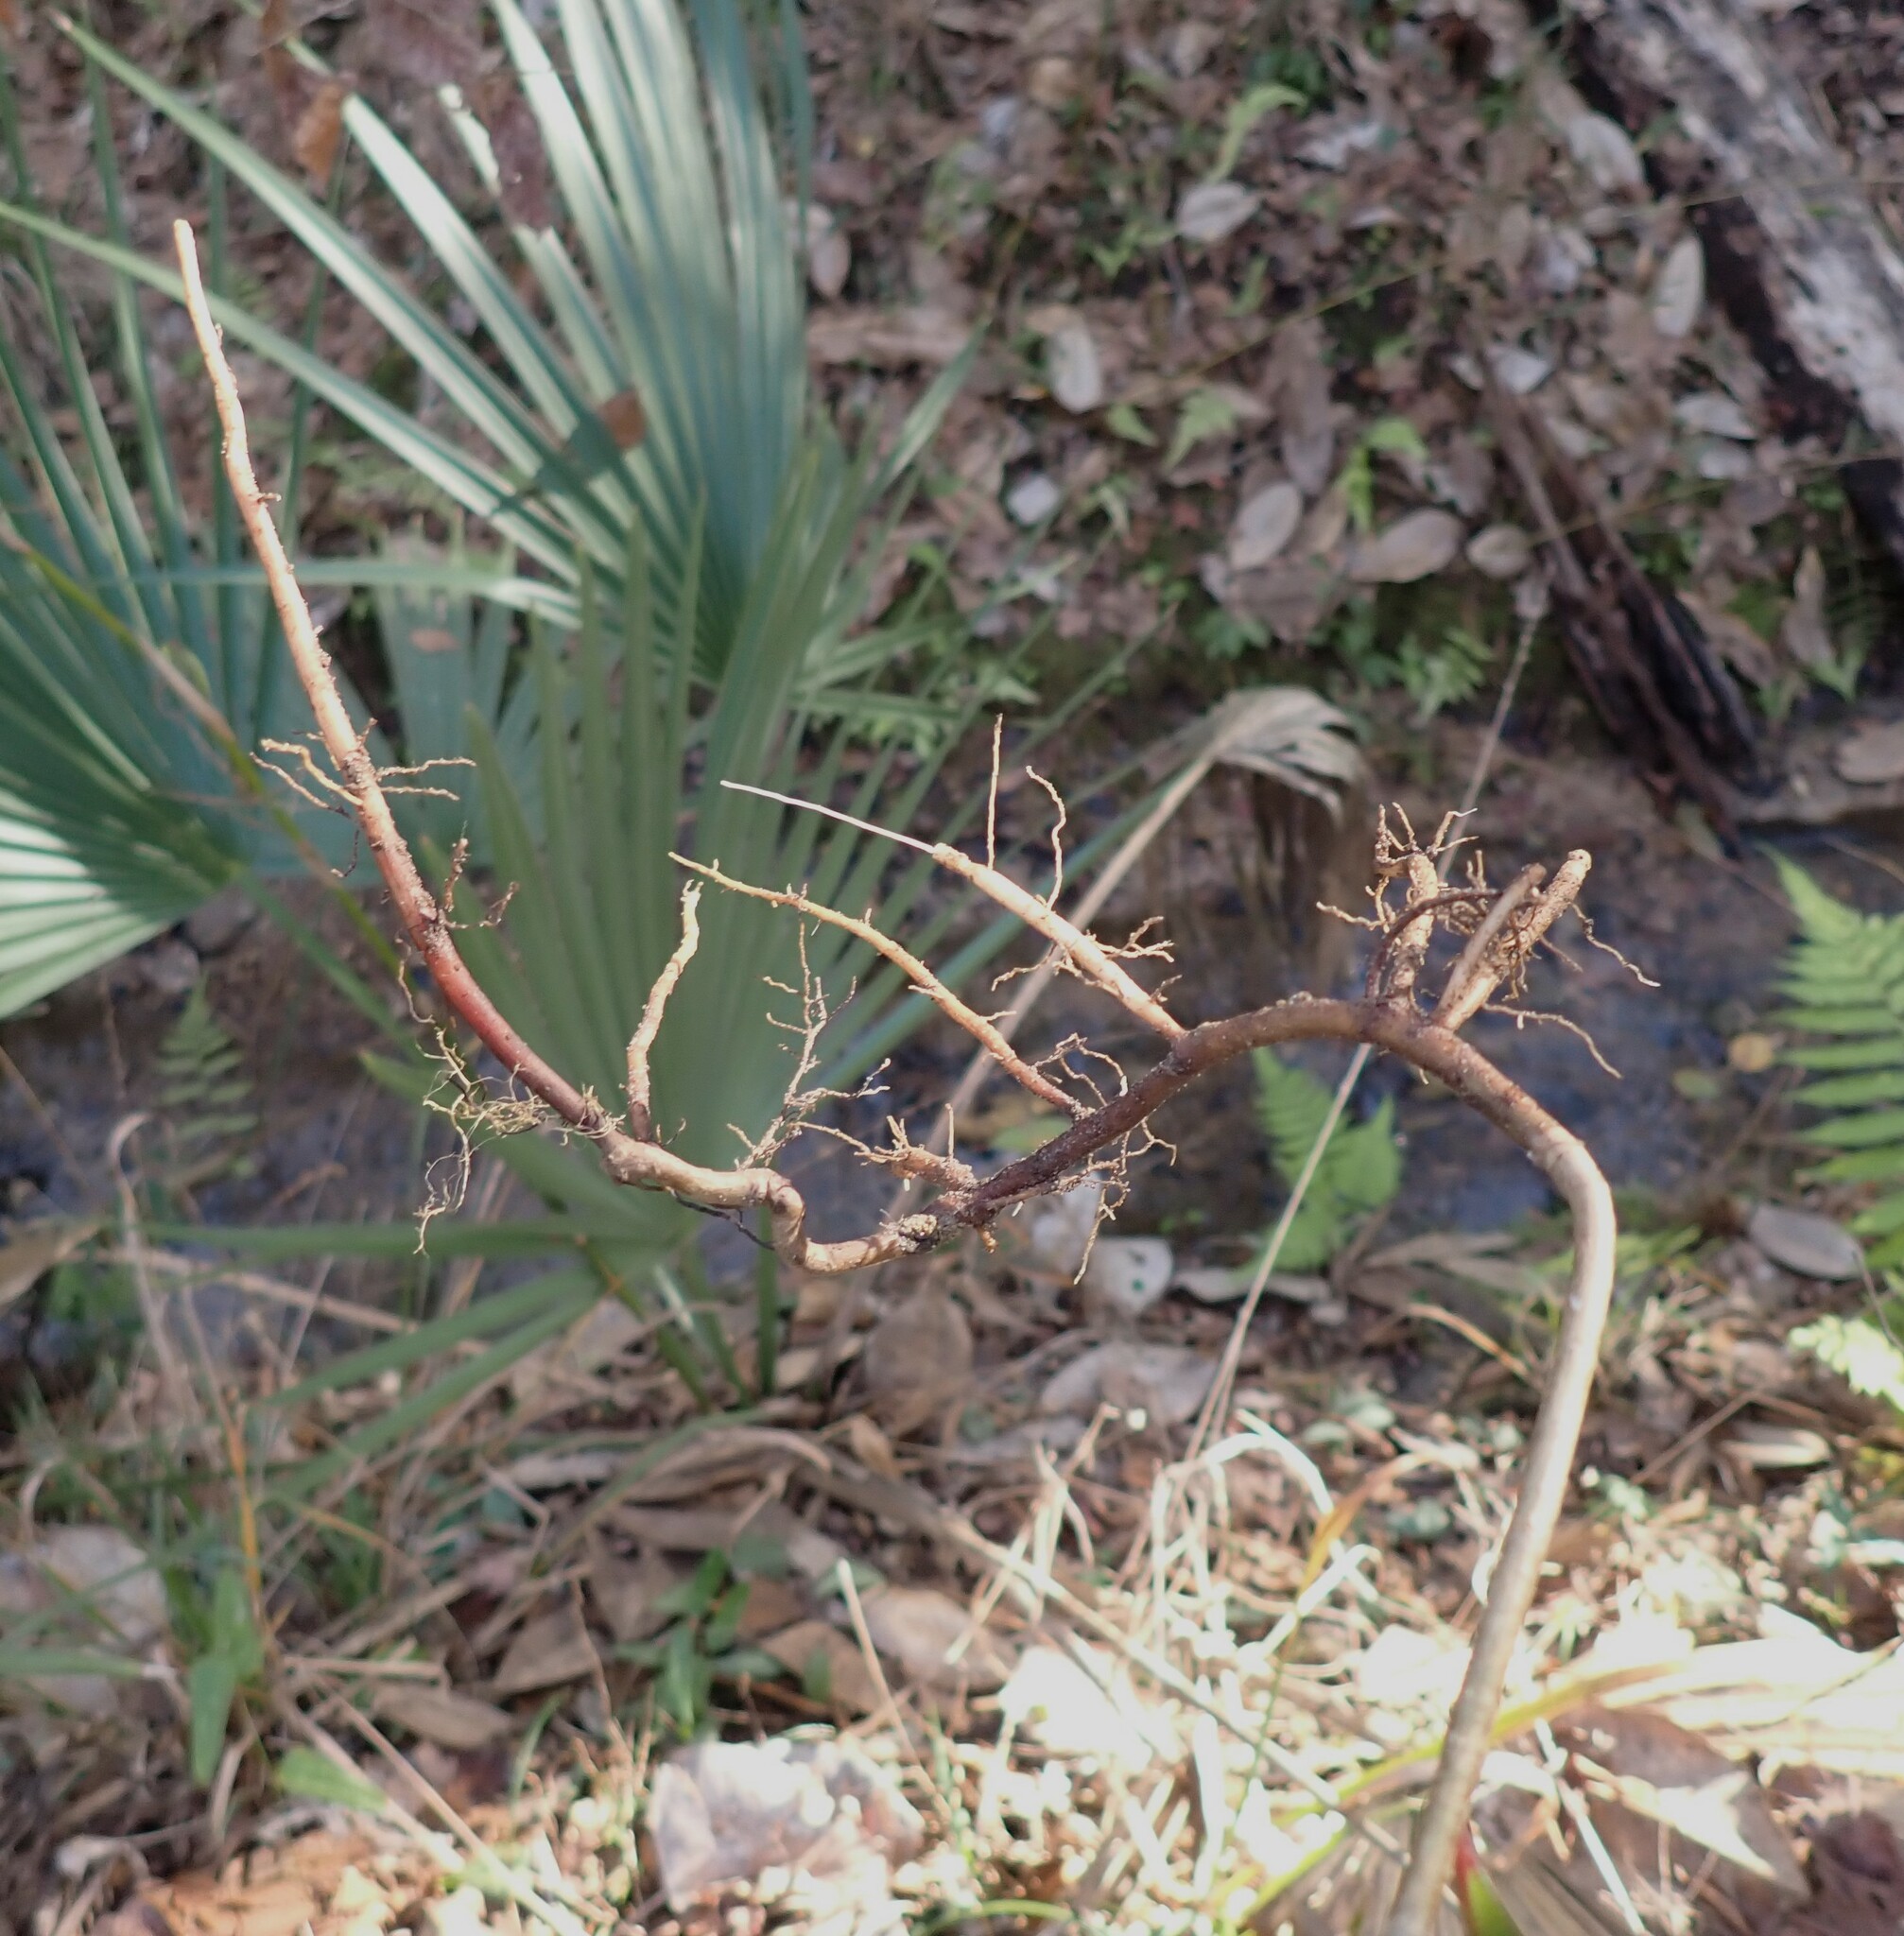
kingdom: Plantae
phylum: Tracheophyta
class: Magnoliopsida
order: Ericales
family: Primulaceae
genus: Ardisia
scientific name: Ardisia crenata
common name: Hen's eyes
